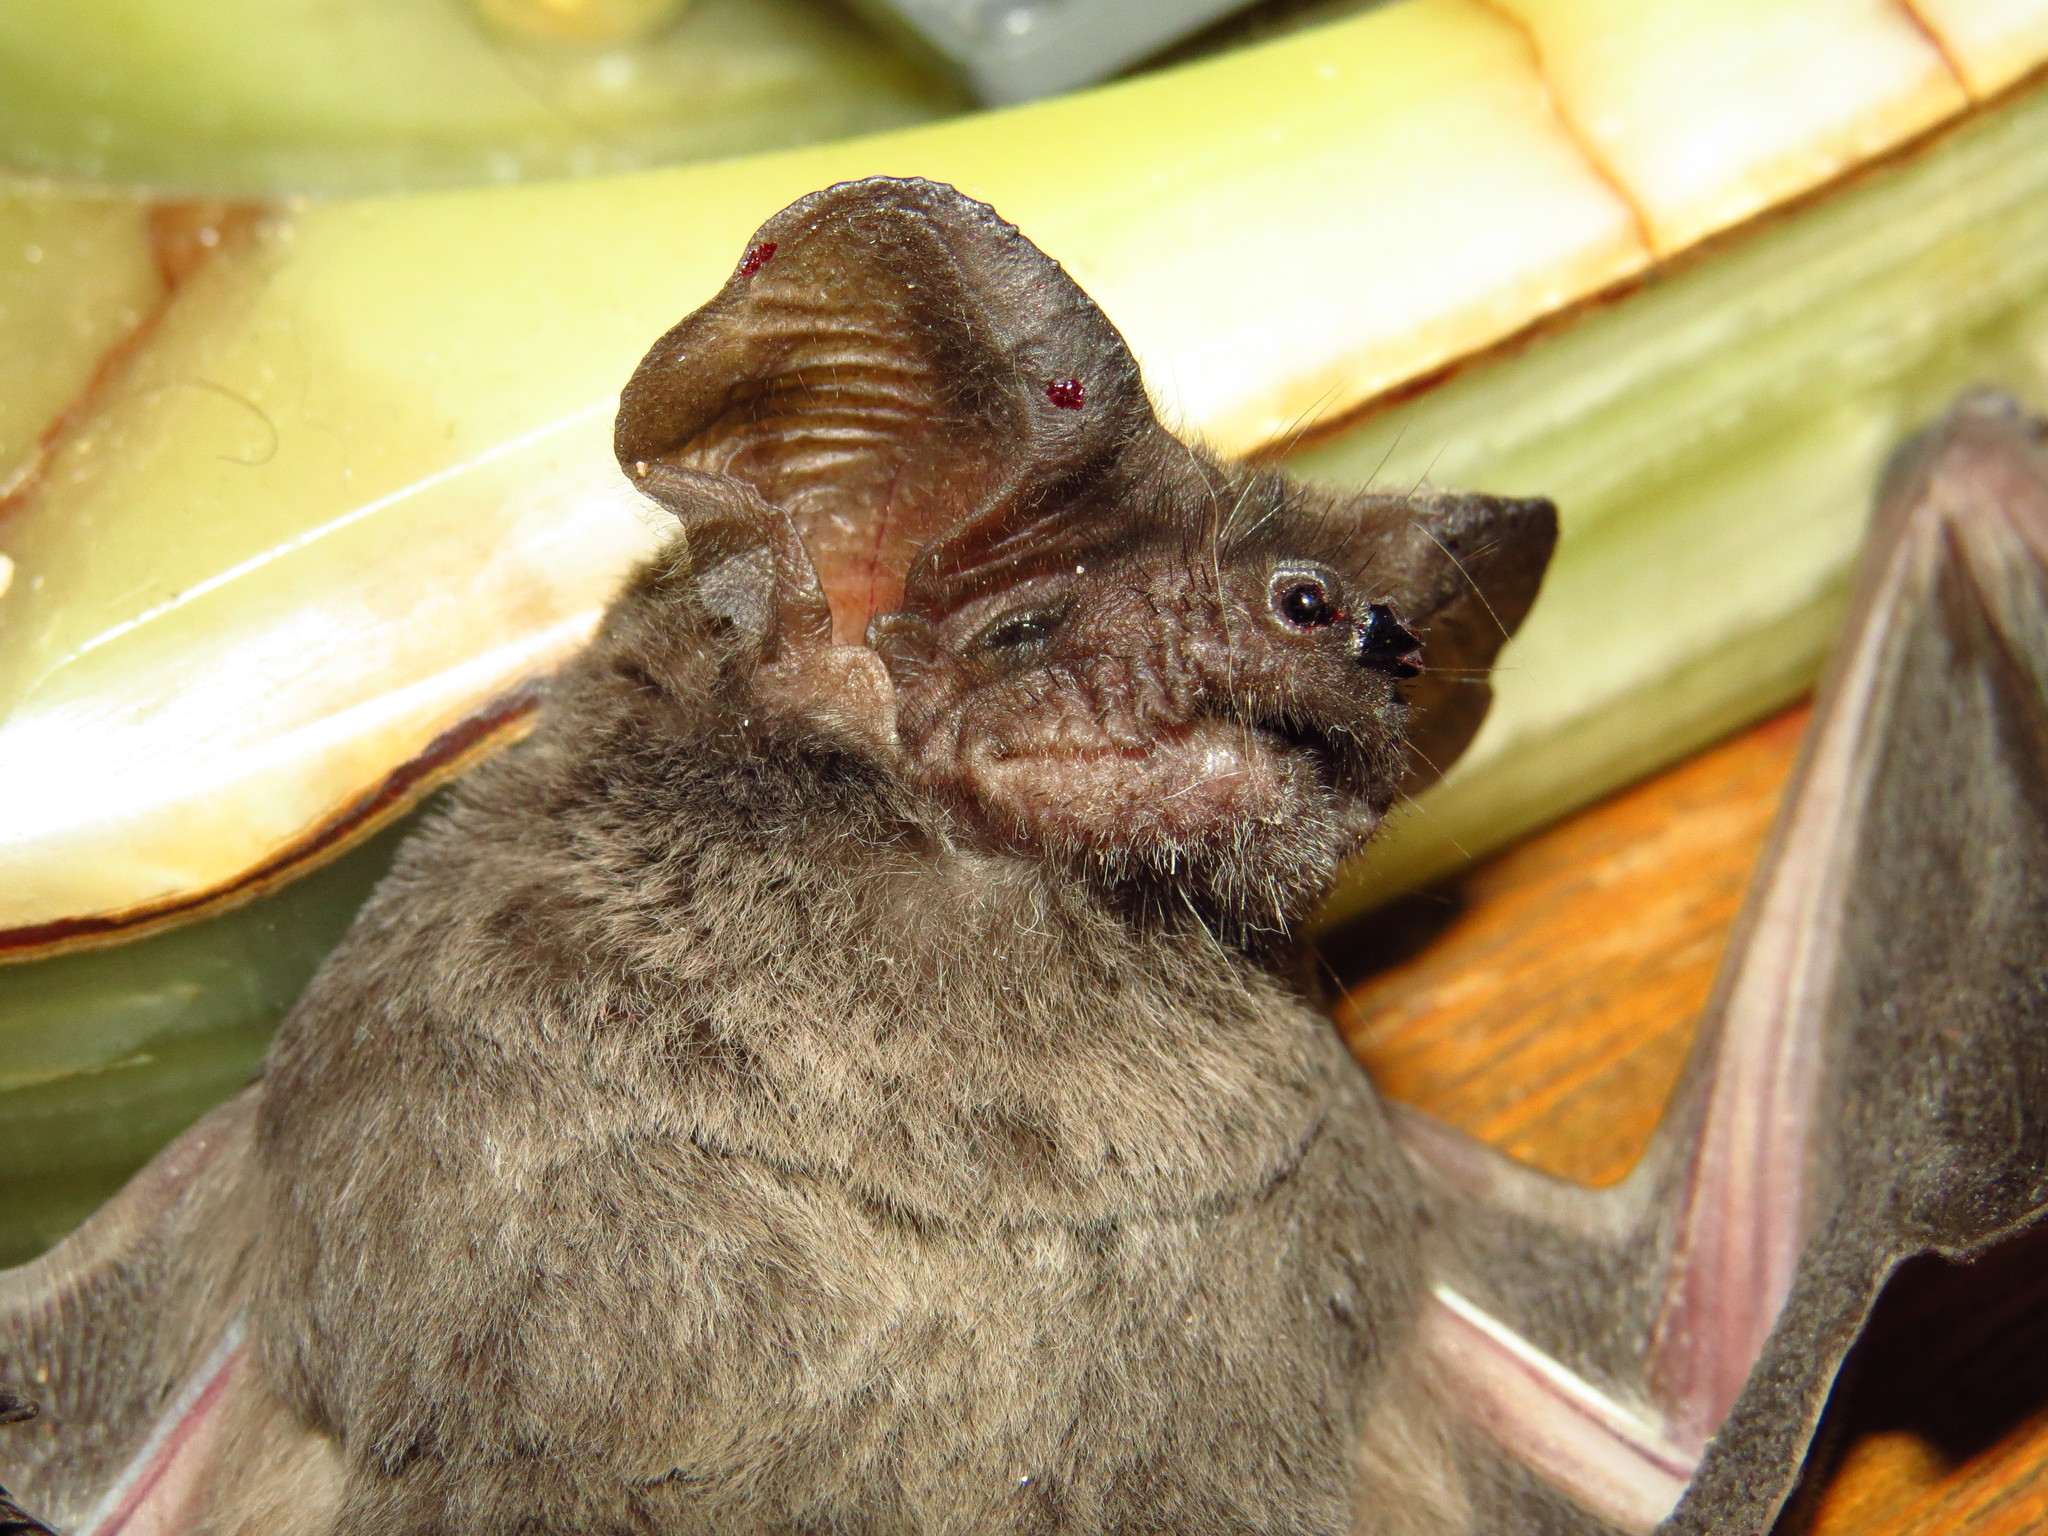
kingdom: Animalia
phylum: Chordata
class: Mammalia
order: Chiroptera
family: Molossidae
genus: Tadarida
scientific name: Tadarida brasiliensis
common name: Mexican free-tailed bat
